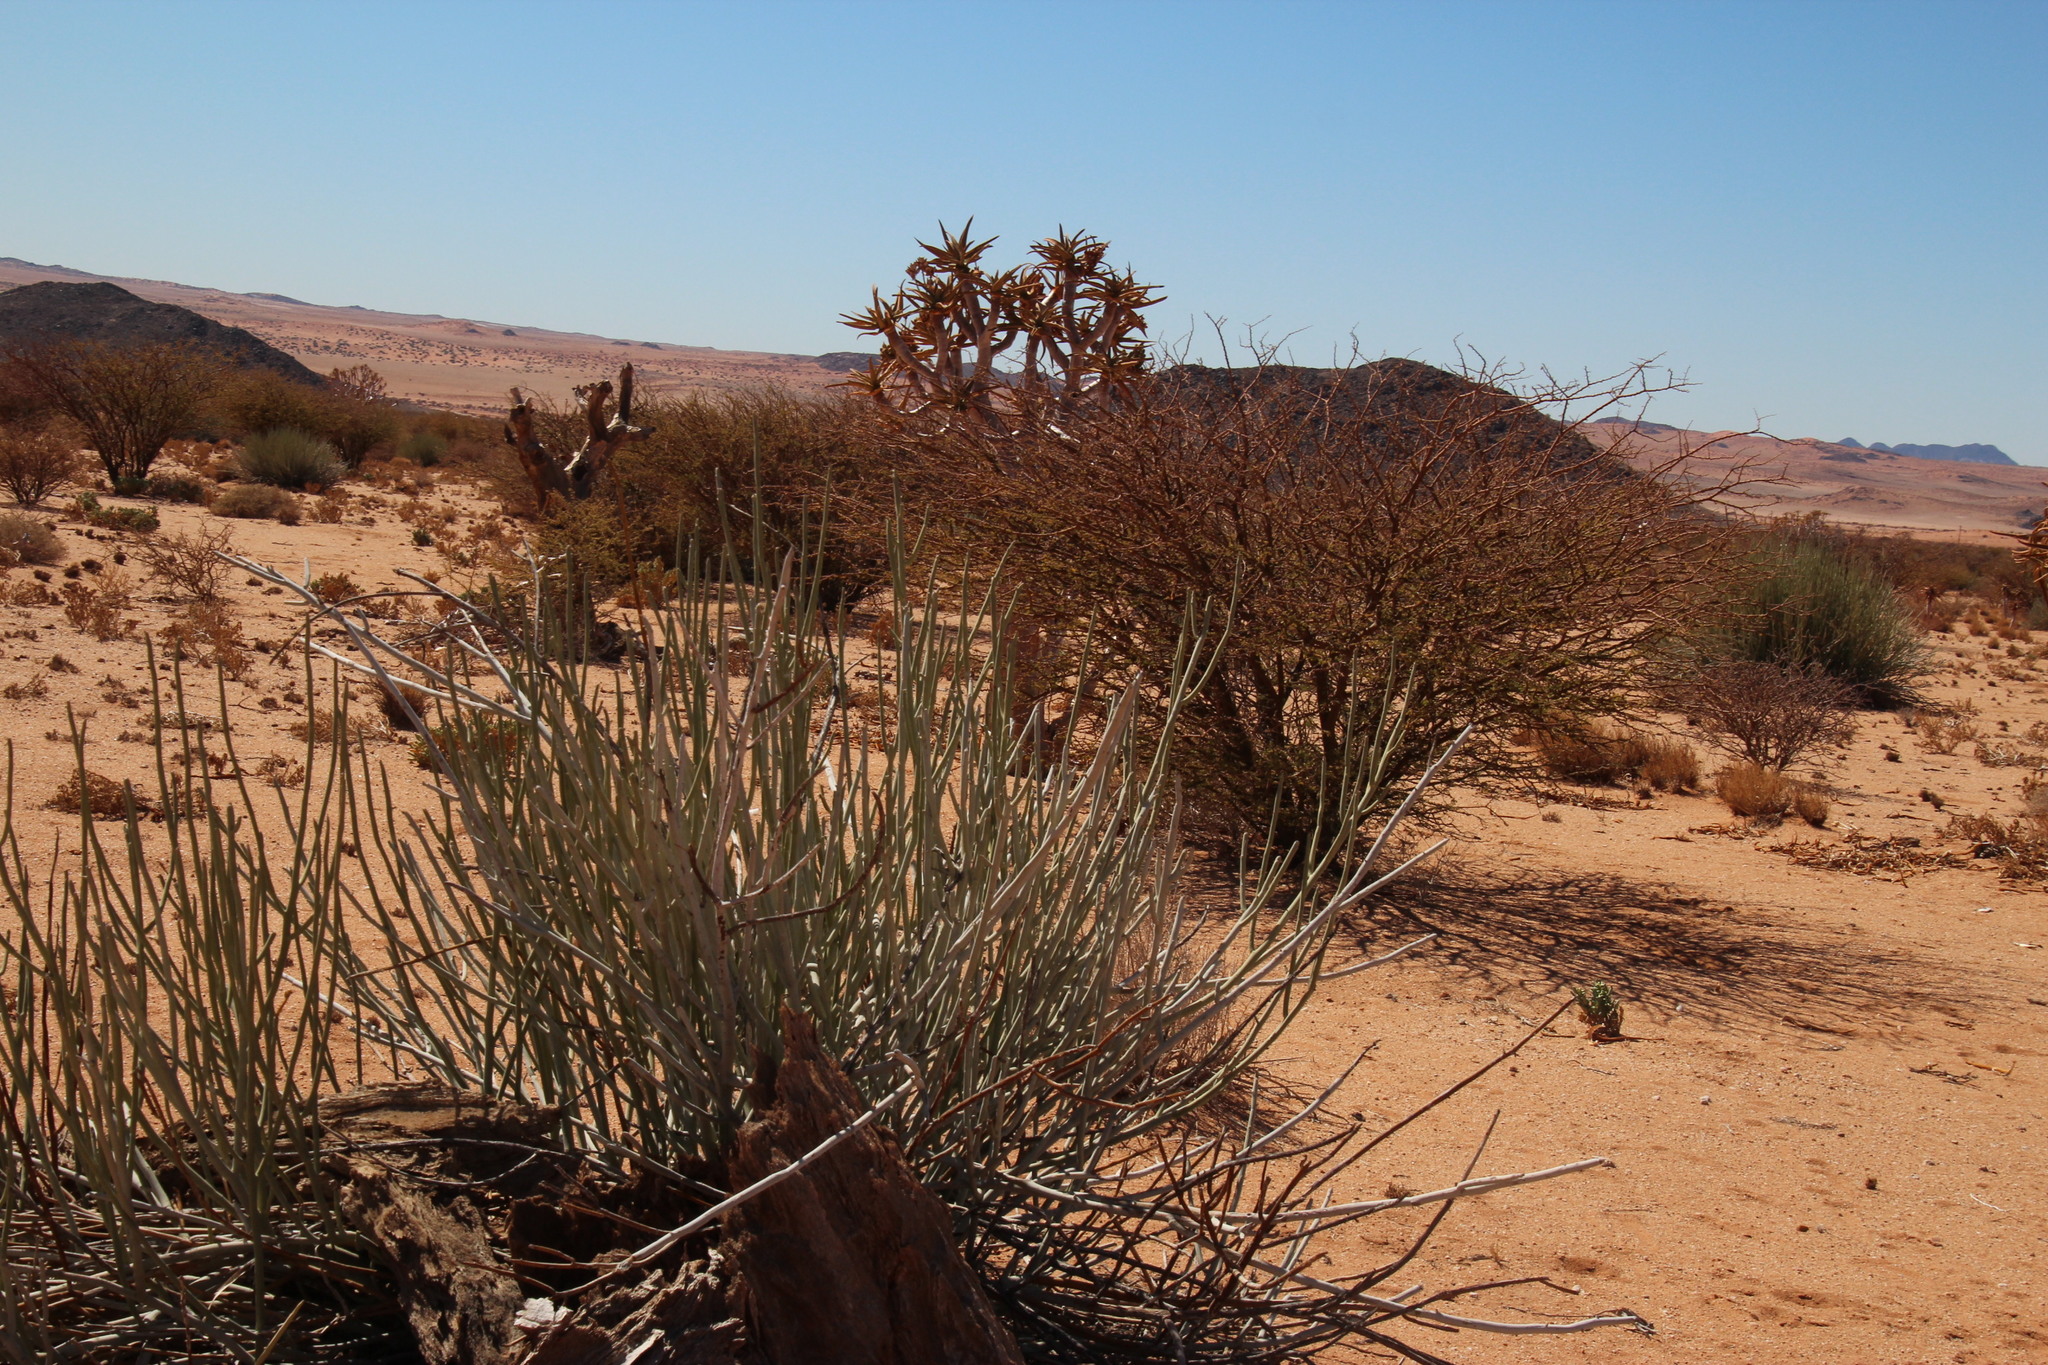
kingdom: Plantae
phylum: Tracheophyta
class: Liliopsida
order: Asparagales
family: Asphodelaceae
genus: Aloidendron
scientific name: Aloidendron dichotomum
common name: Quiver tree
